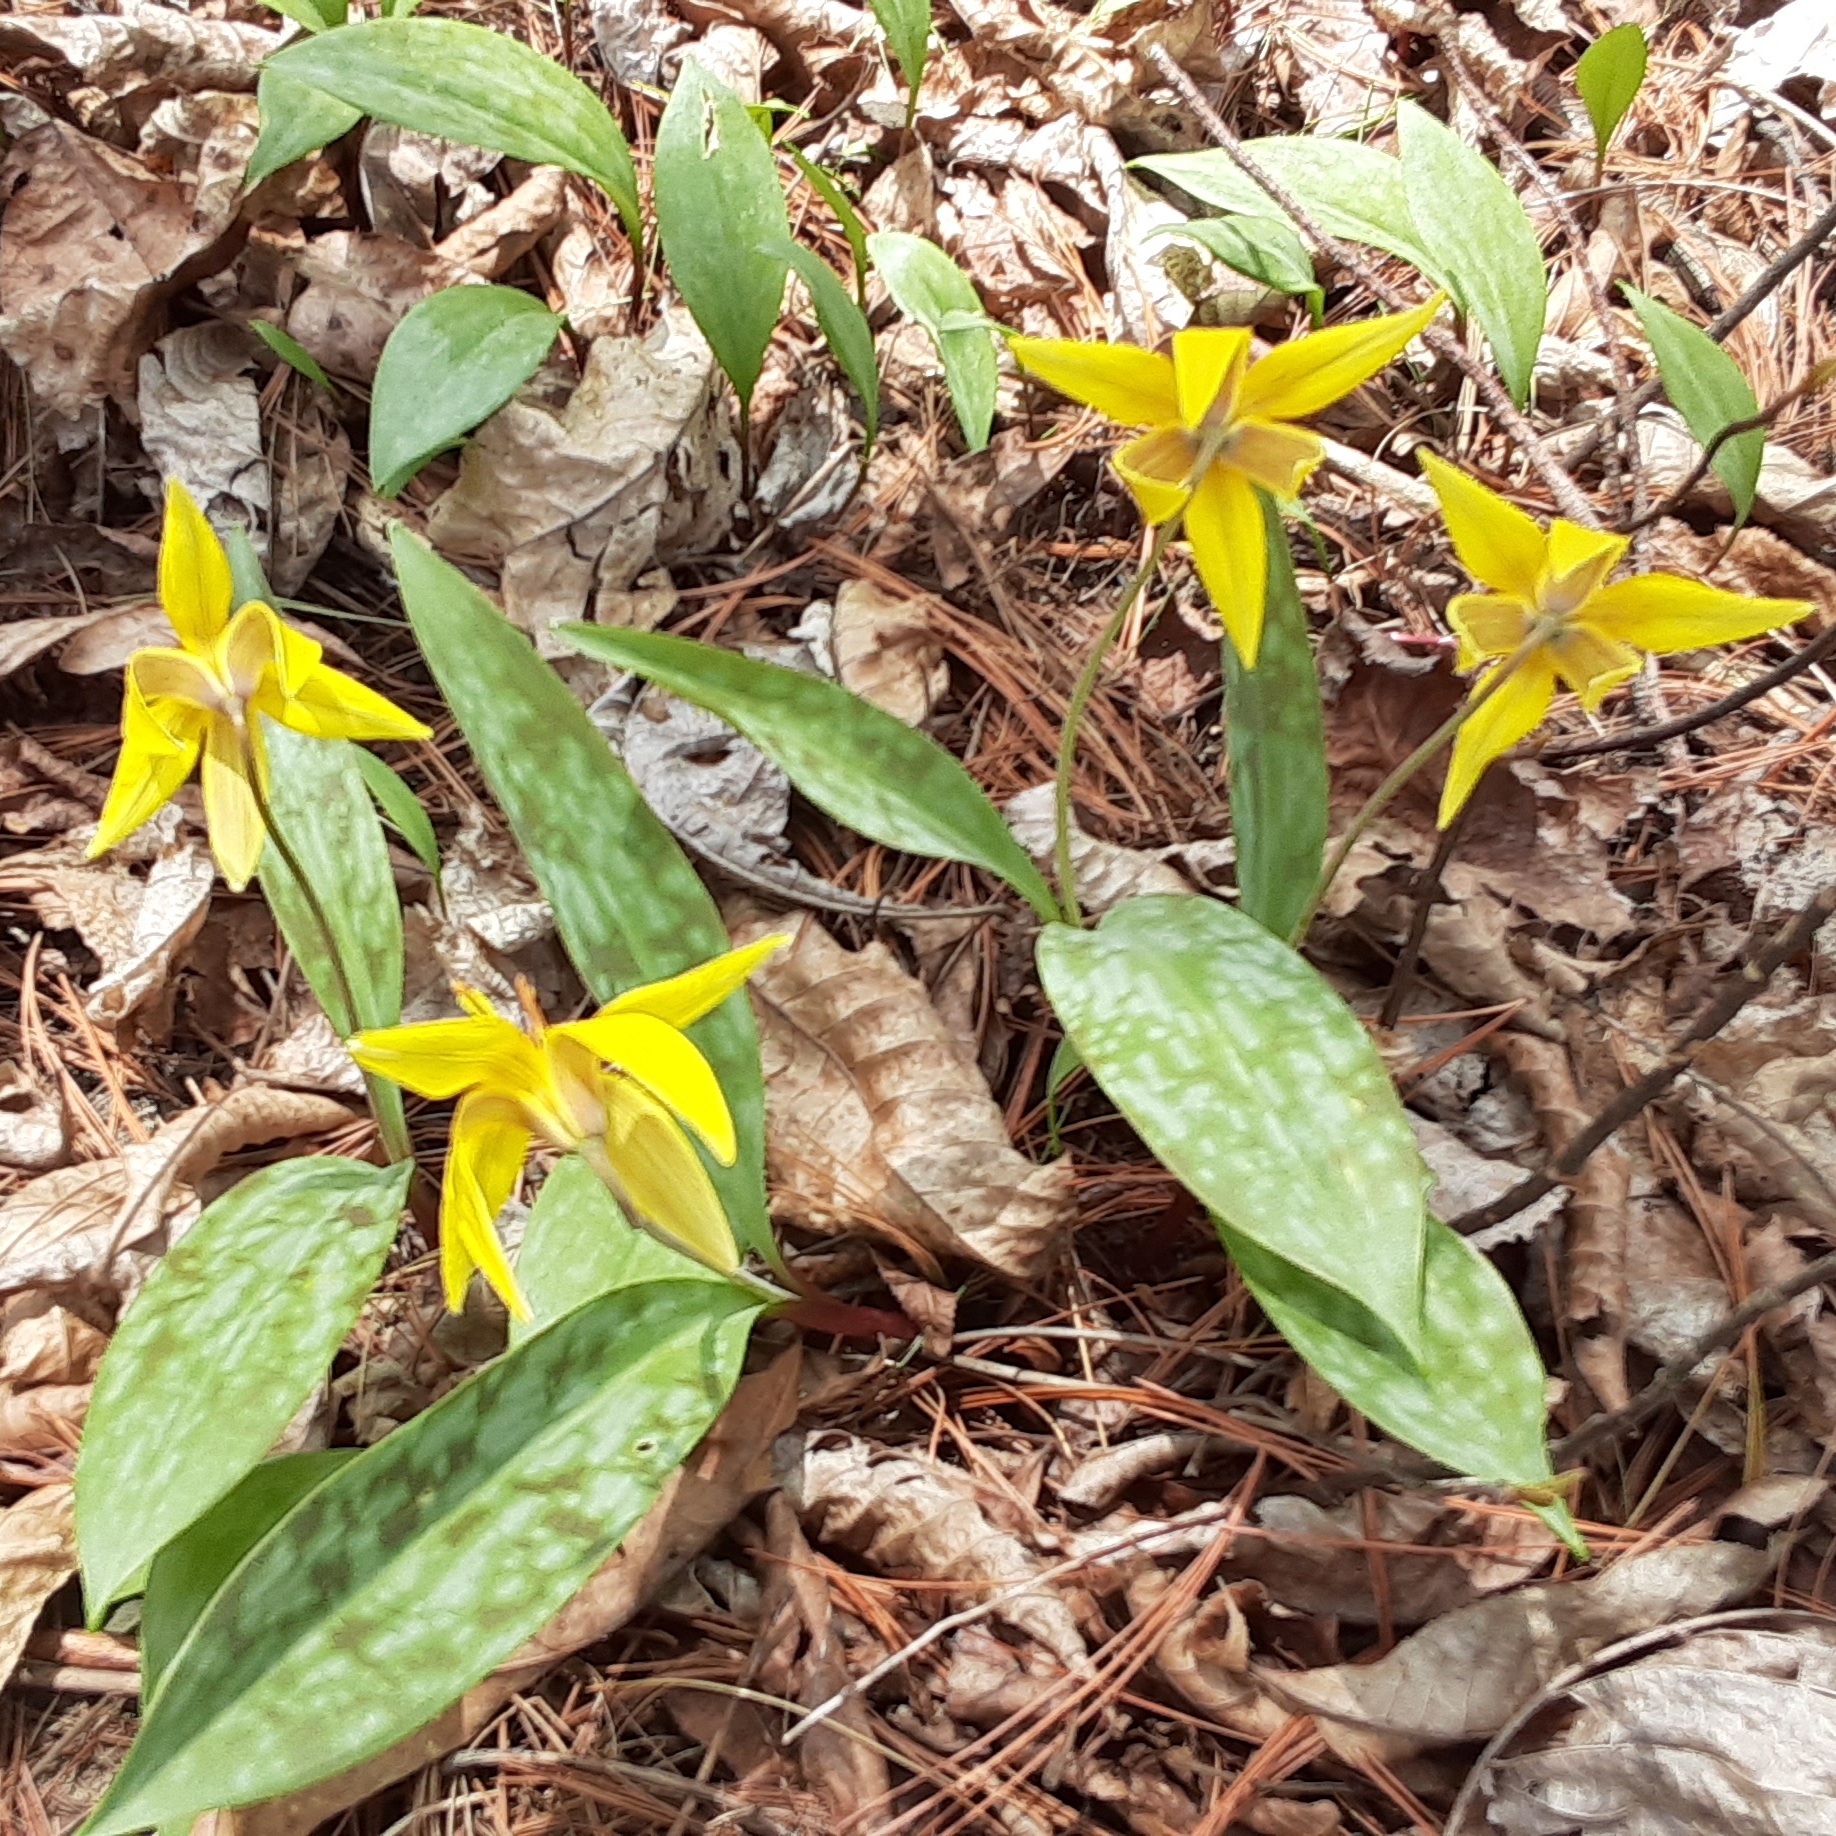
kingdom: Plantae
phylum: Tracheophyta
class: Liliopsida
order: Liliales
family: Liliaceae
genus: Erythronium
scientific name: Erythronium americanum
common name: Yellow adder's-tongue
